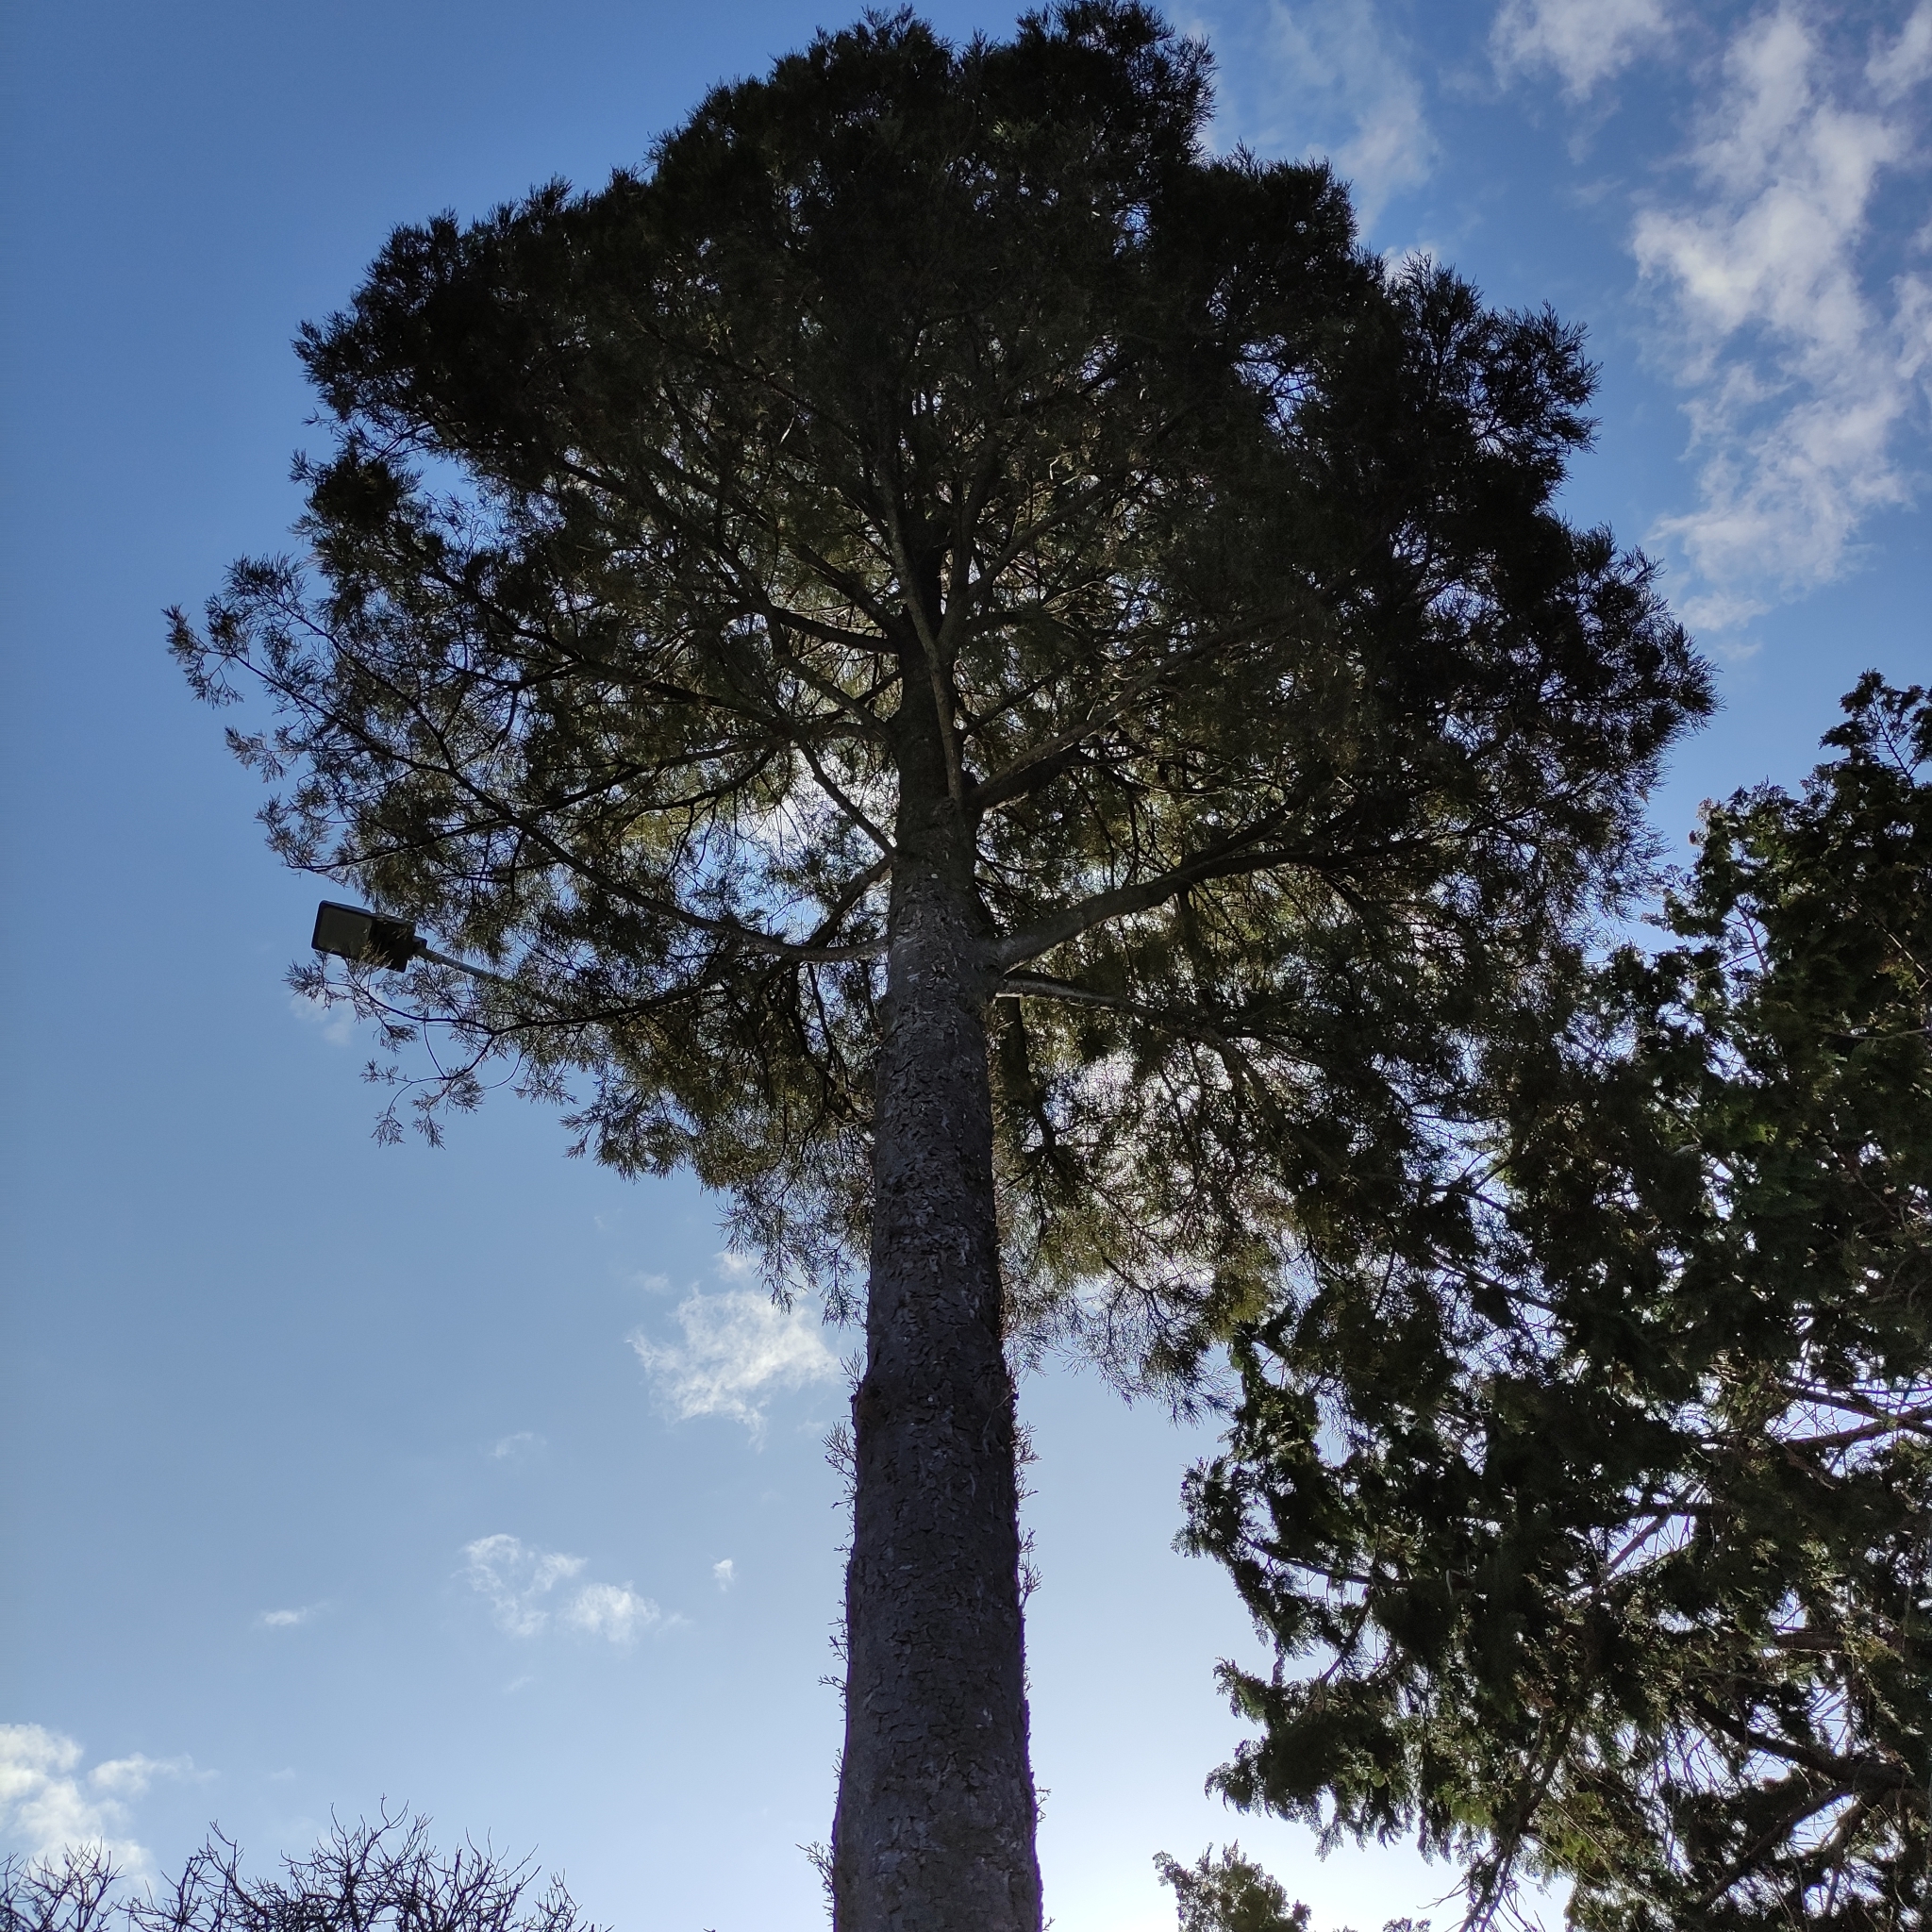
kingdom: Plantae
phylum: Tracheophyta
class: Pinopsida
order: Pinales
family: Podocarpaceae
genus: Dacrycarpus
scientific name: Dacrycarpus dacrydioides
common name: White pine
